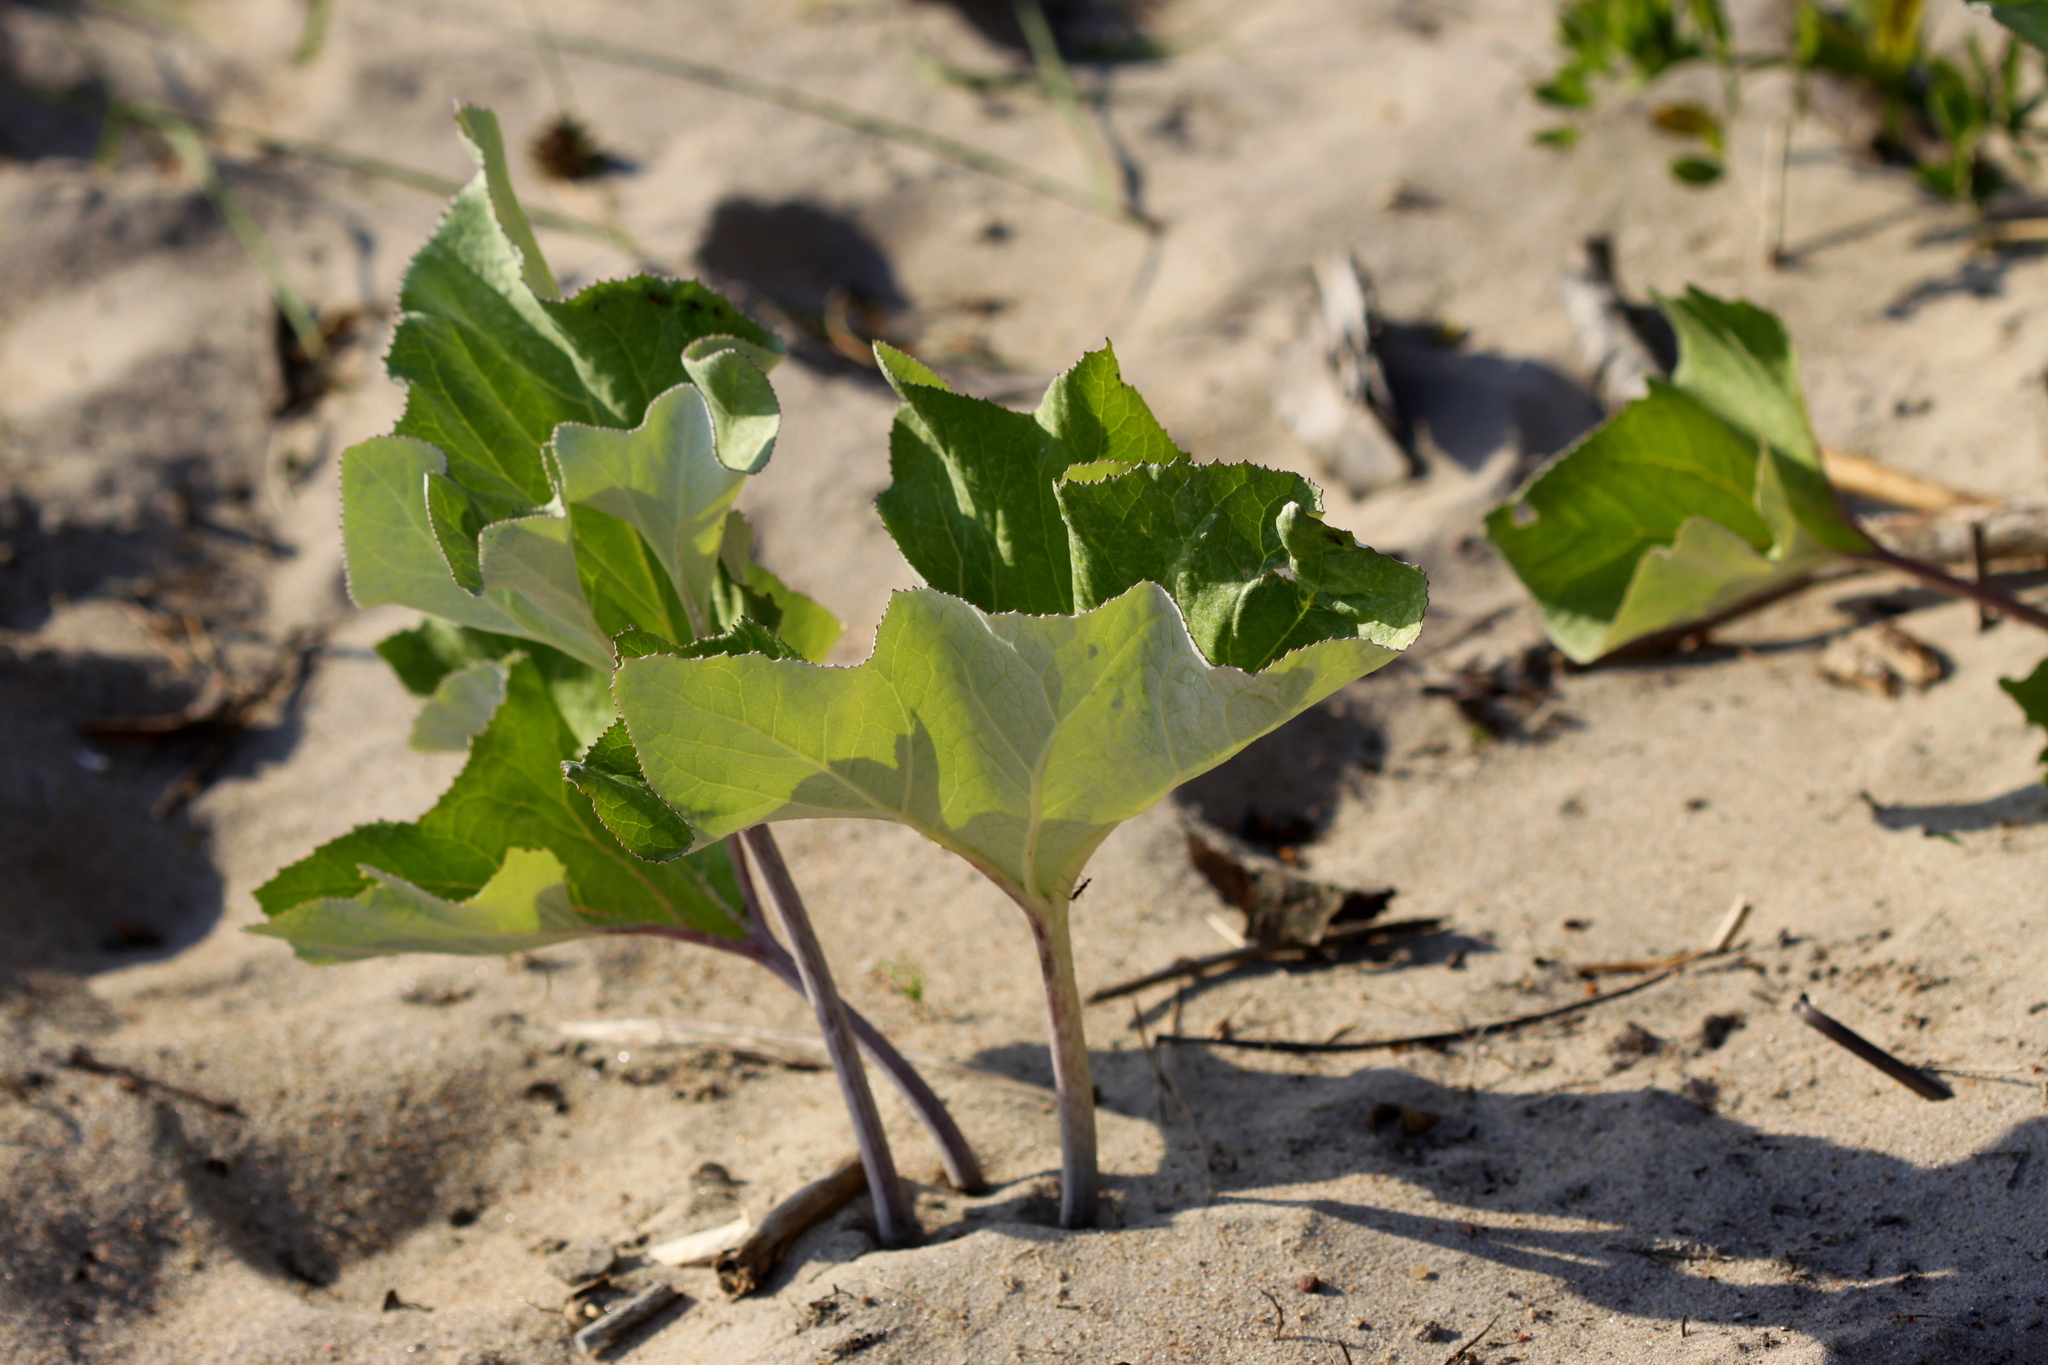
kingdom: Plantae
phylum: Tracheophyta
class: Magnoliopsida
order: Asterales
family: Asteraceae
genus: Petasites
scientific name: Petasites spurius
